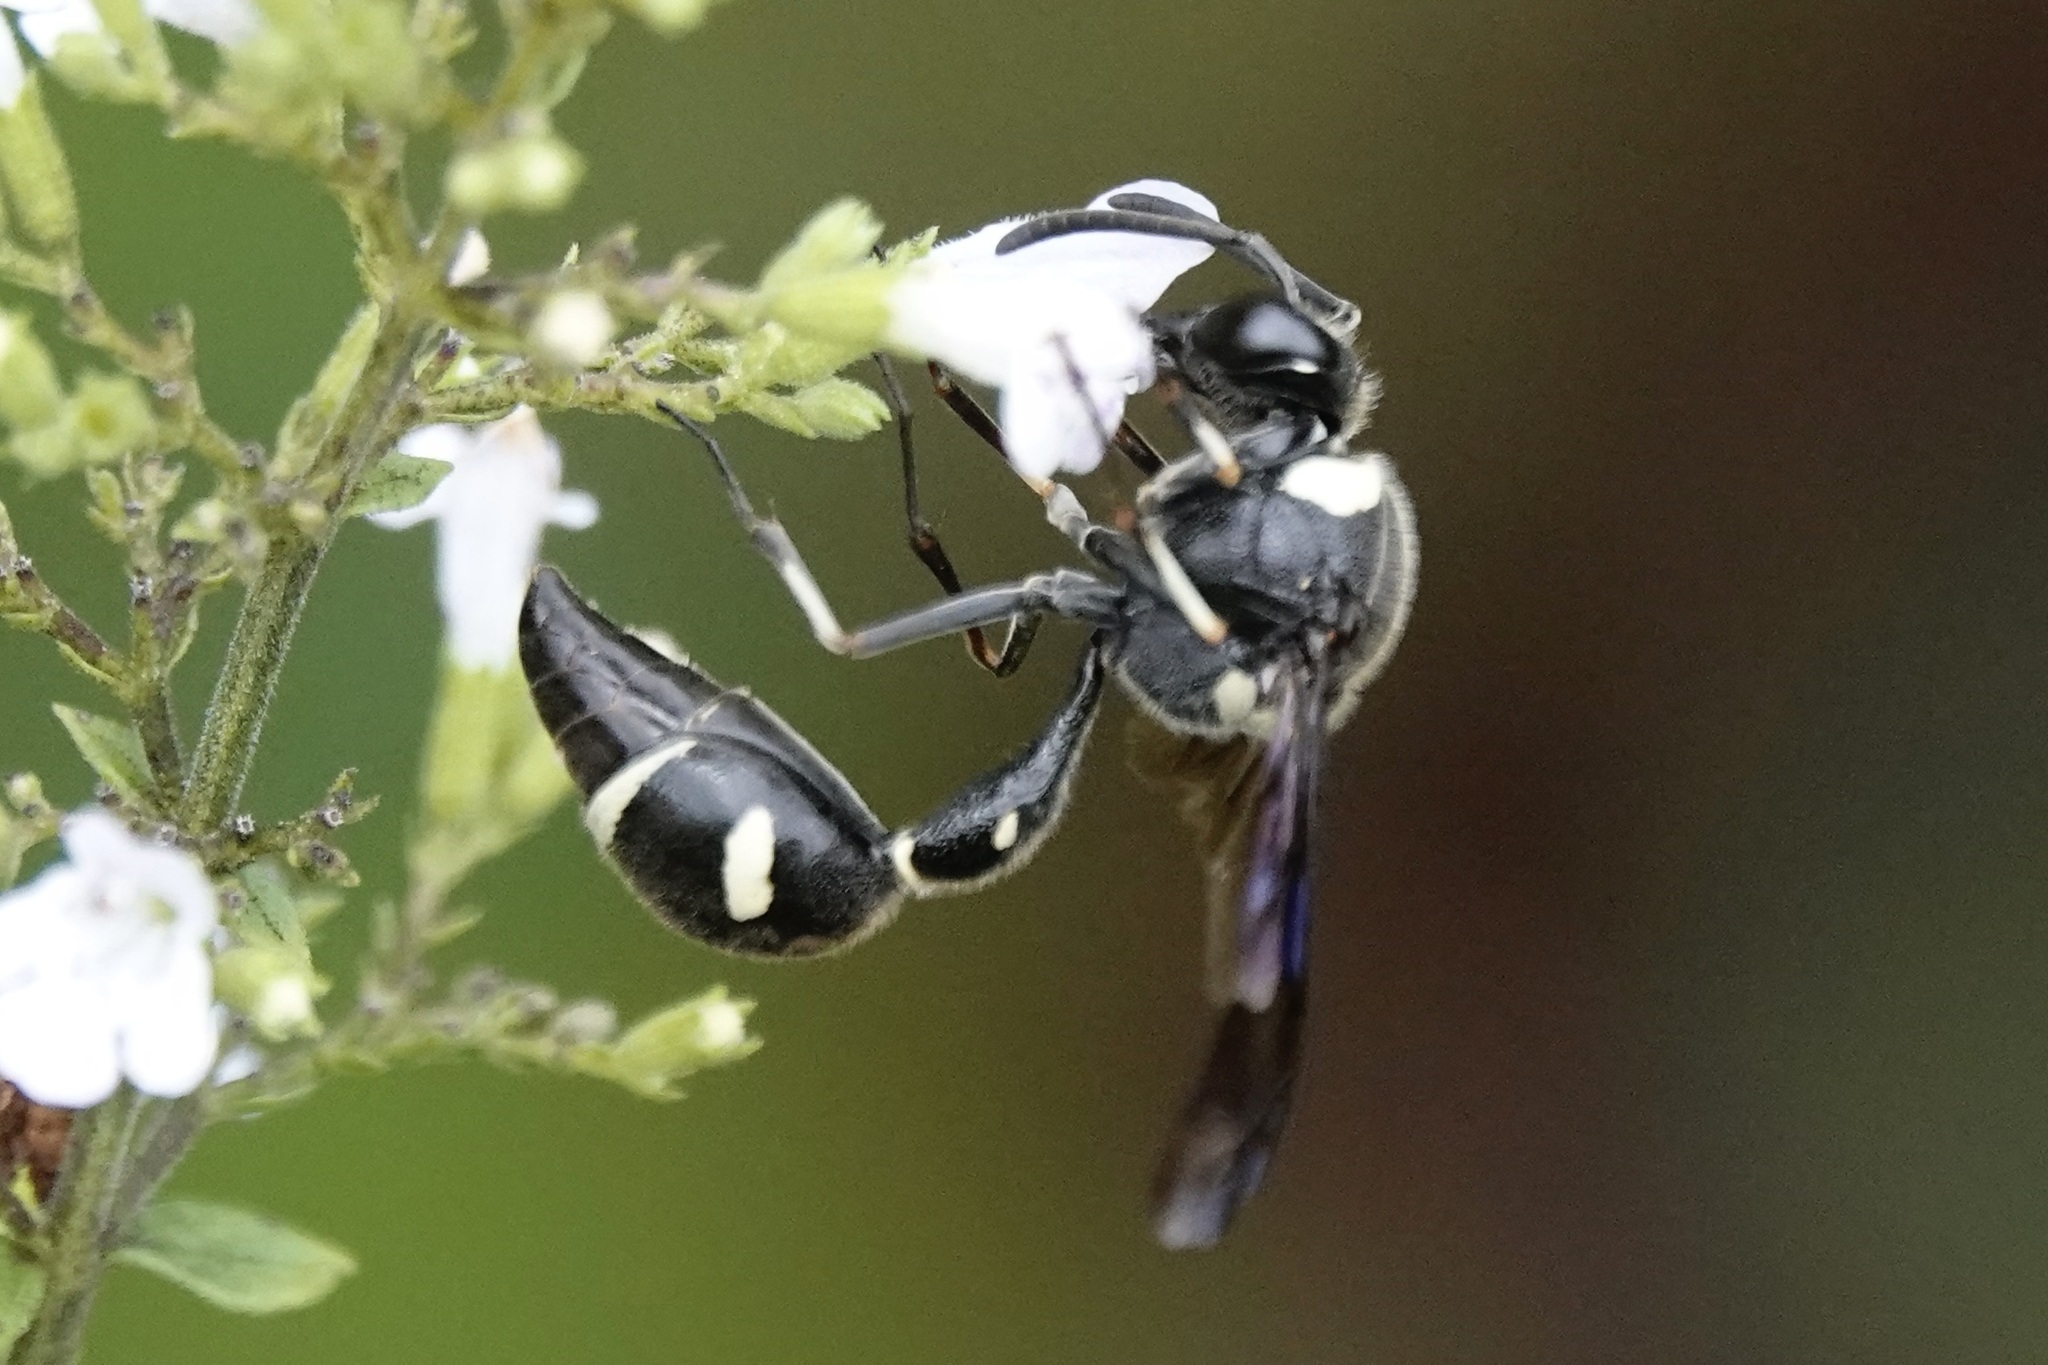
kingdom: Animalia
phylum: Arthropoda
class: Insecta
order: Hymenoptera
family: Vespidae
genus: Eumenes
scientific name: Eumenes fraternus
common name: Fraternal potter wasp
